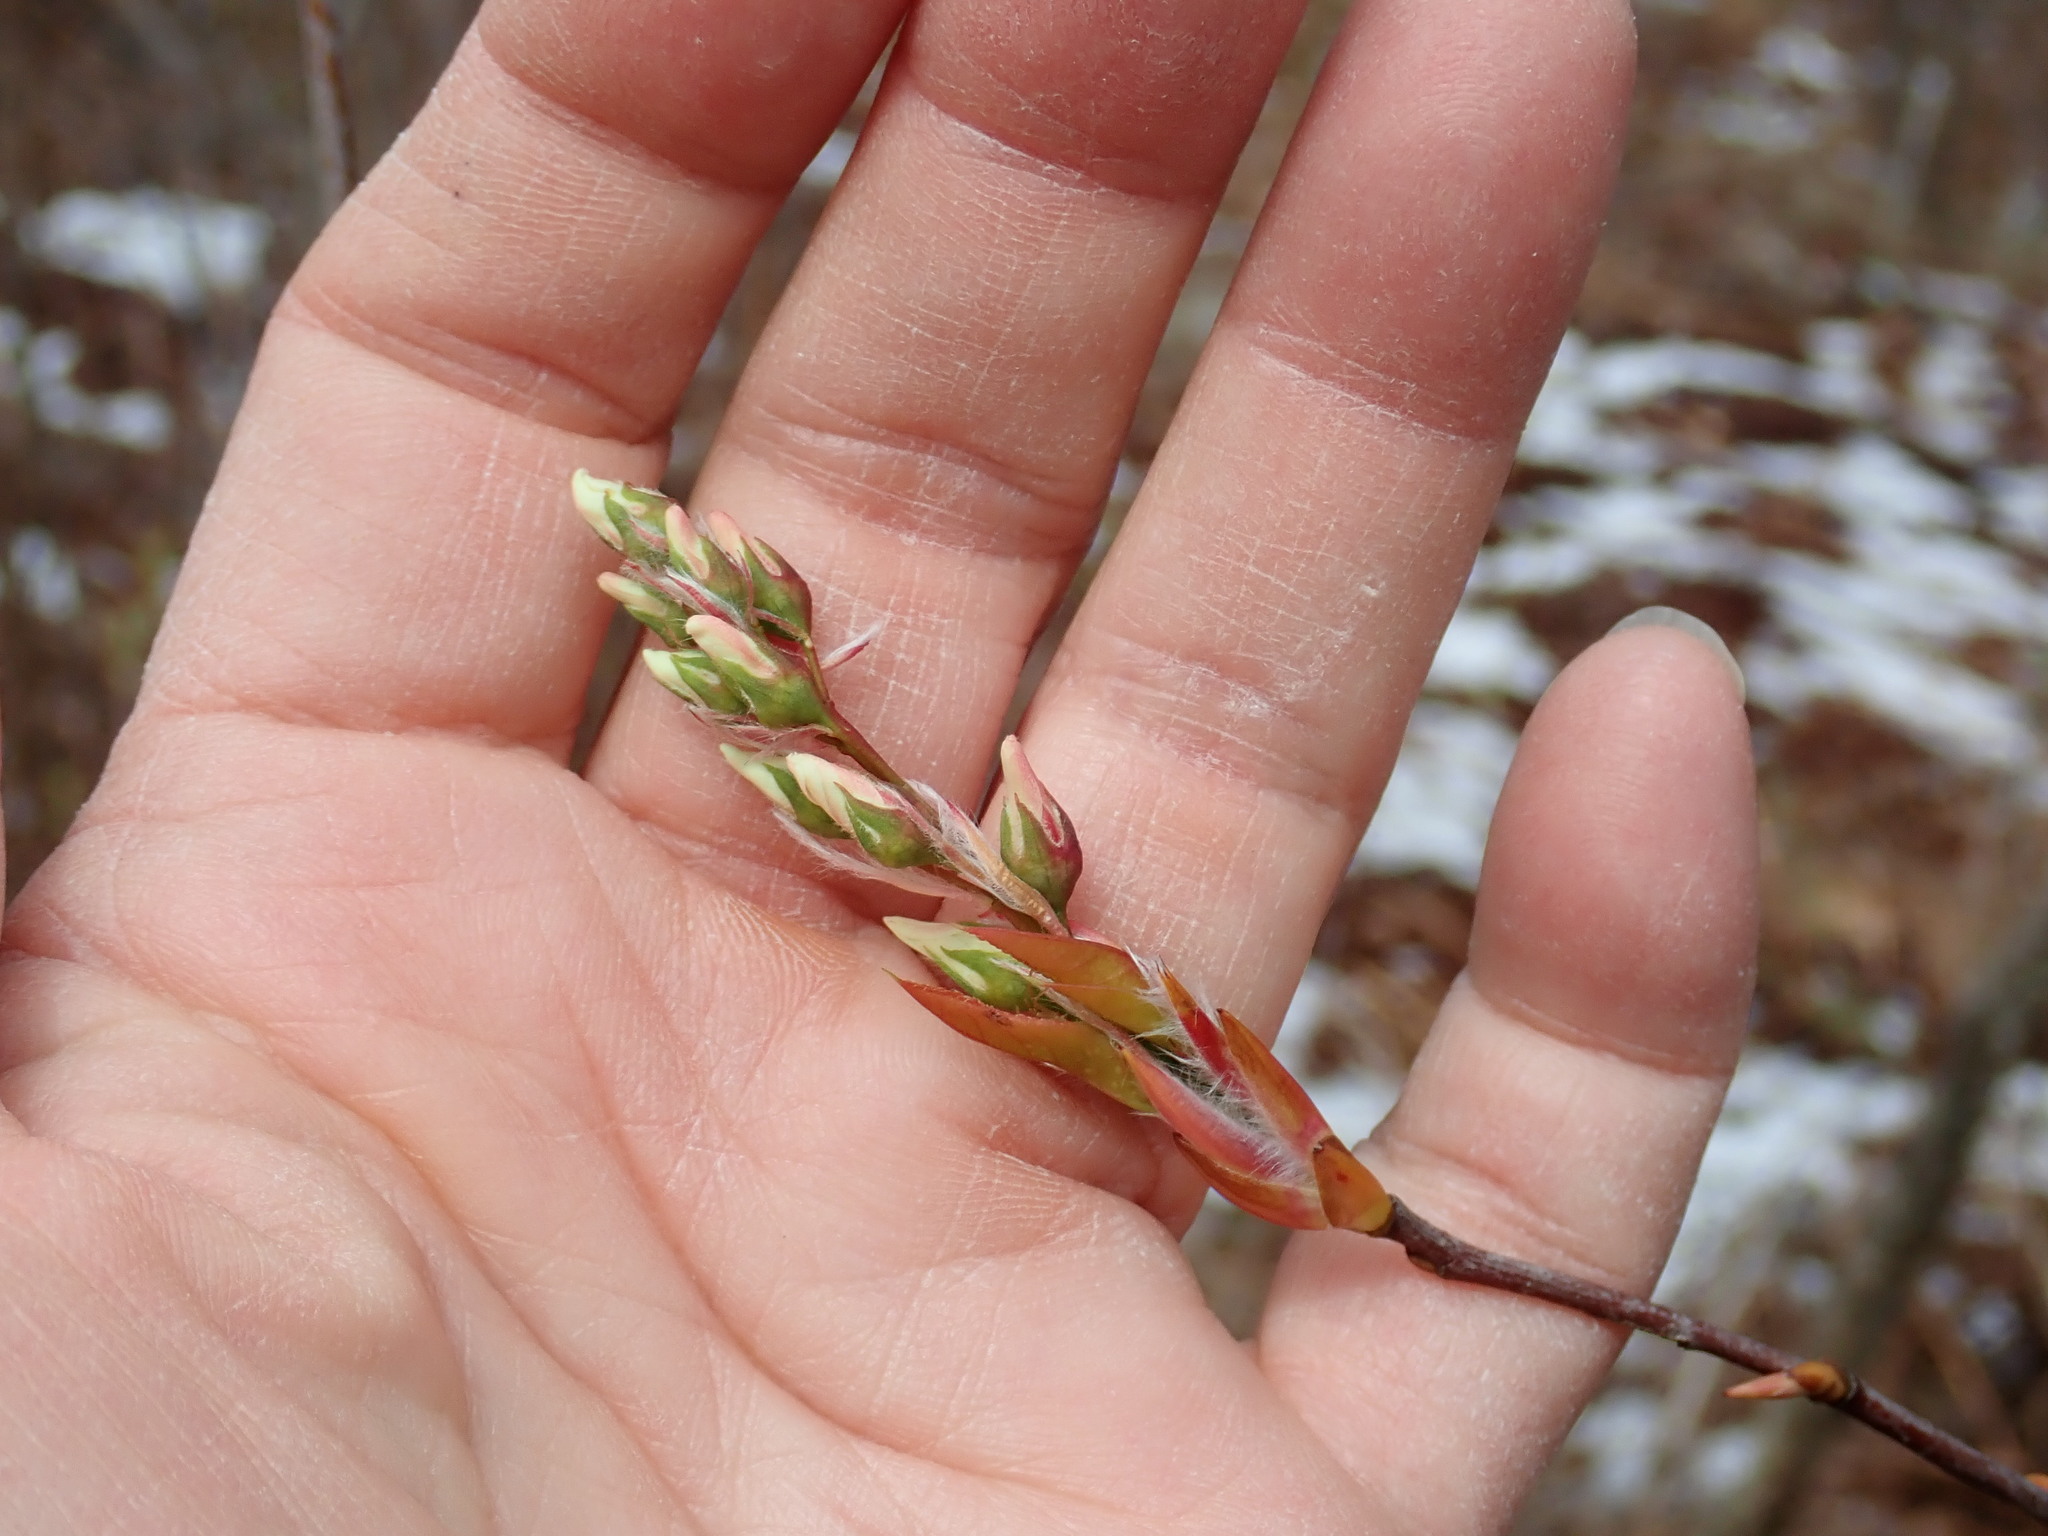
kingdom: Plantae
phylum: Tracheophyta
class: Magnoliopsida
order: Rosales
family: Rosaceae
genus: Amelanchier
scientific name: Amelanchier
